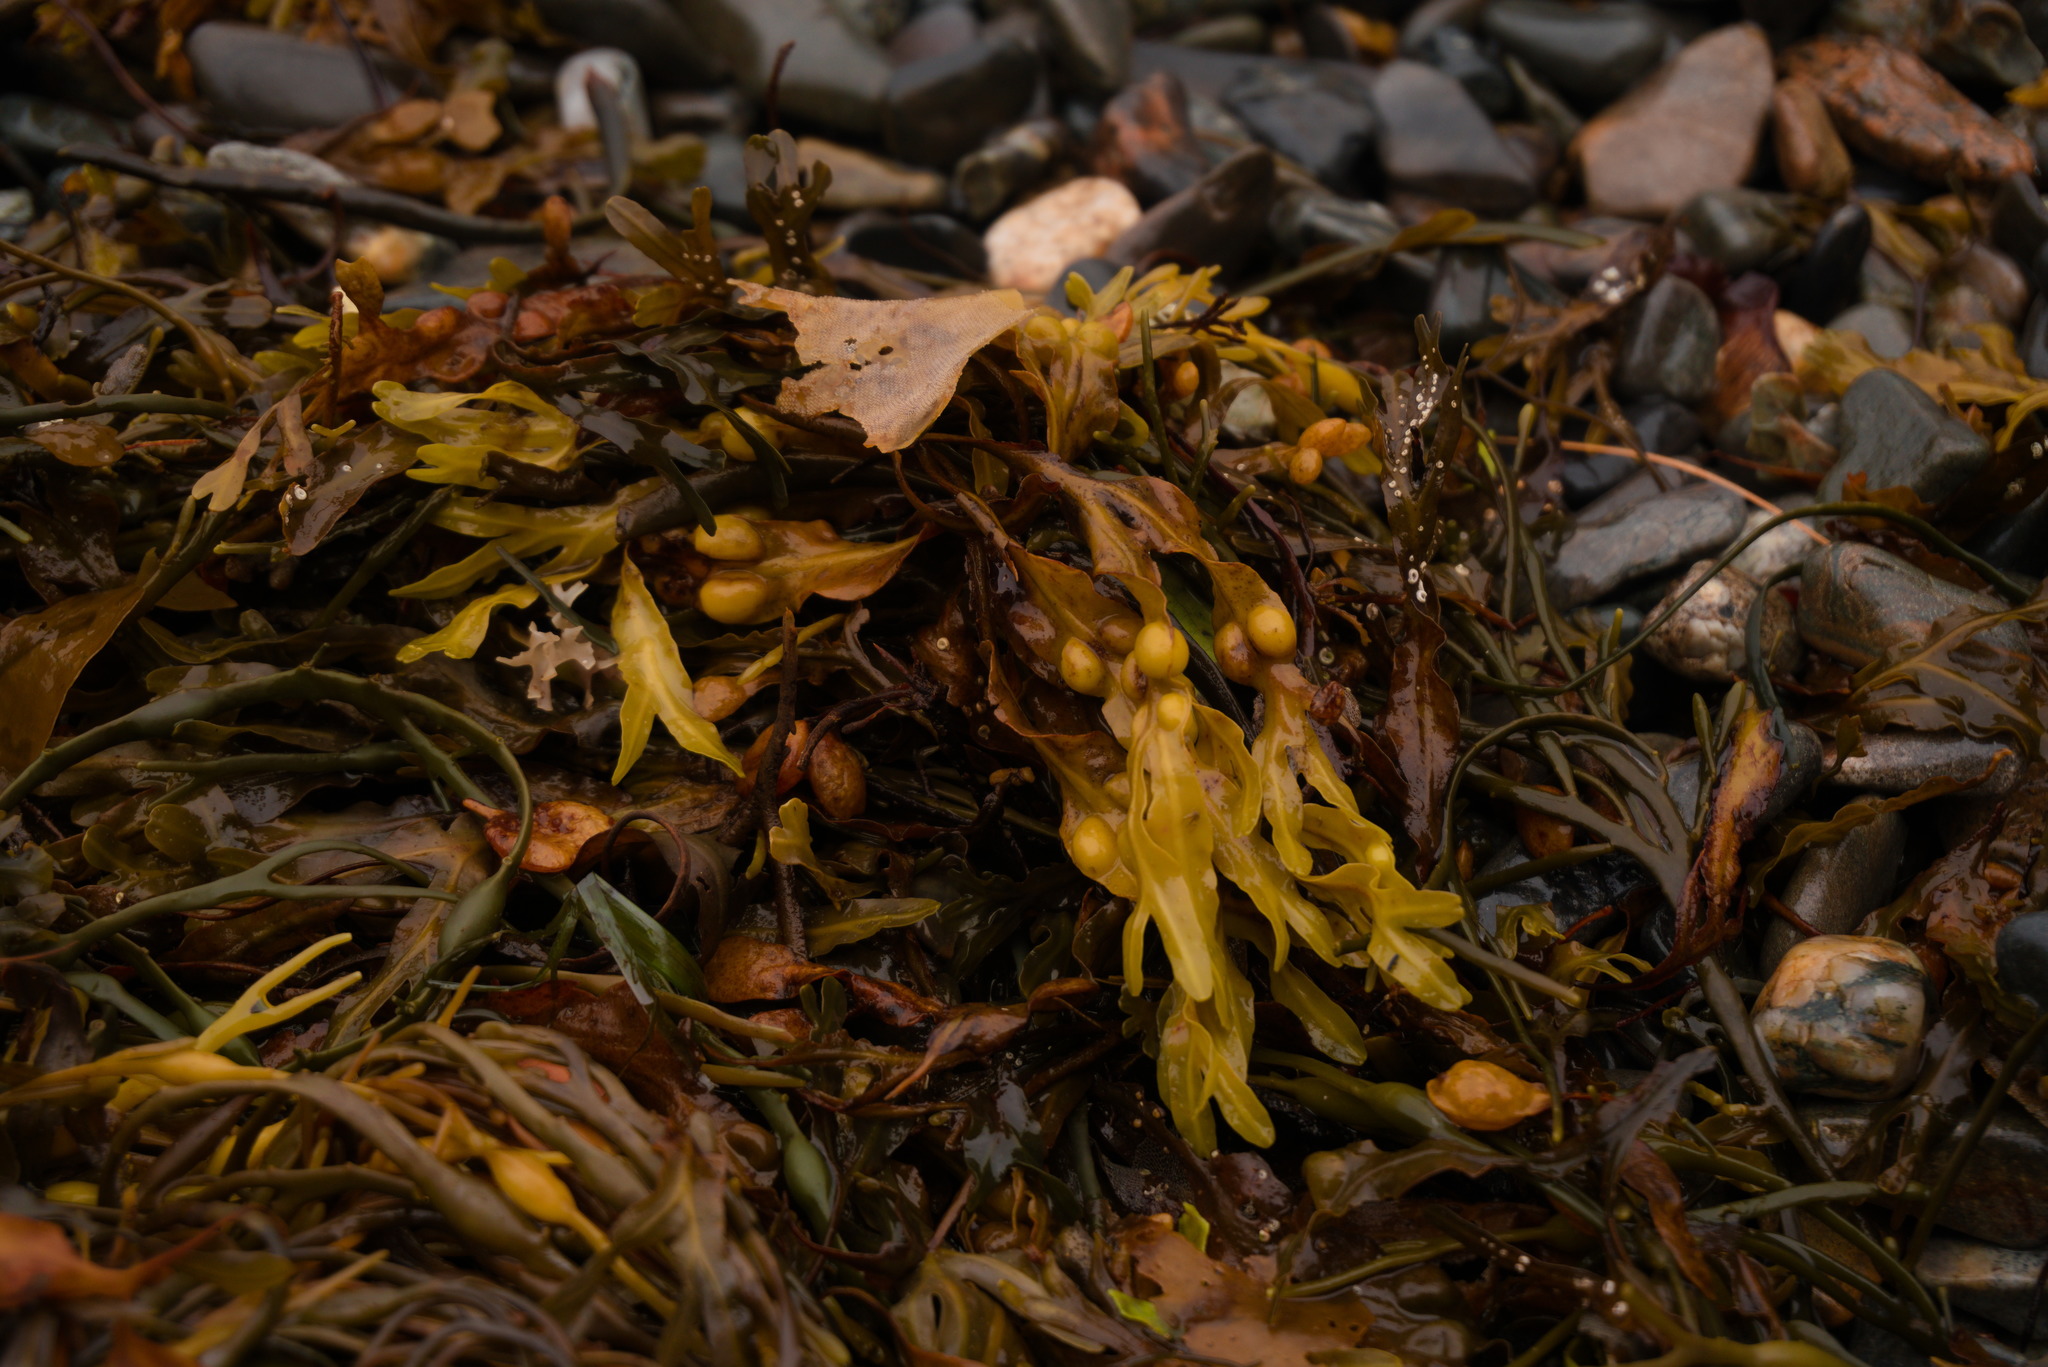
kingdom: Chromista
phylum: Ochrophyta
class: Phaeophyceae
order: Fucales
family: Fucaceae
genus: Fucus
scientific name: Fucus vesiculosus
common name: Bladder wrack
